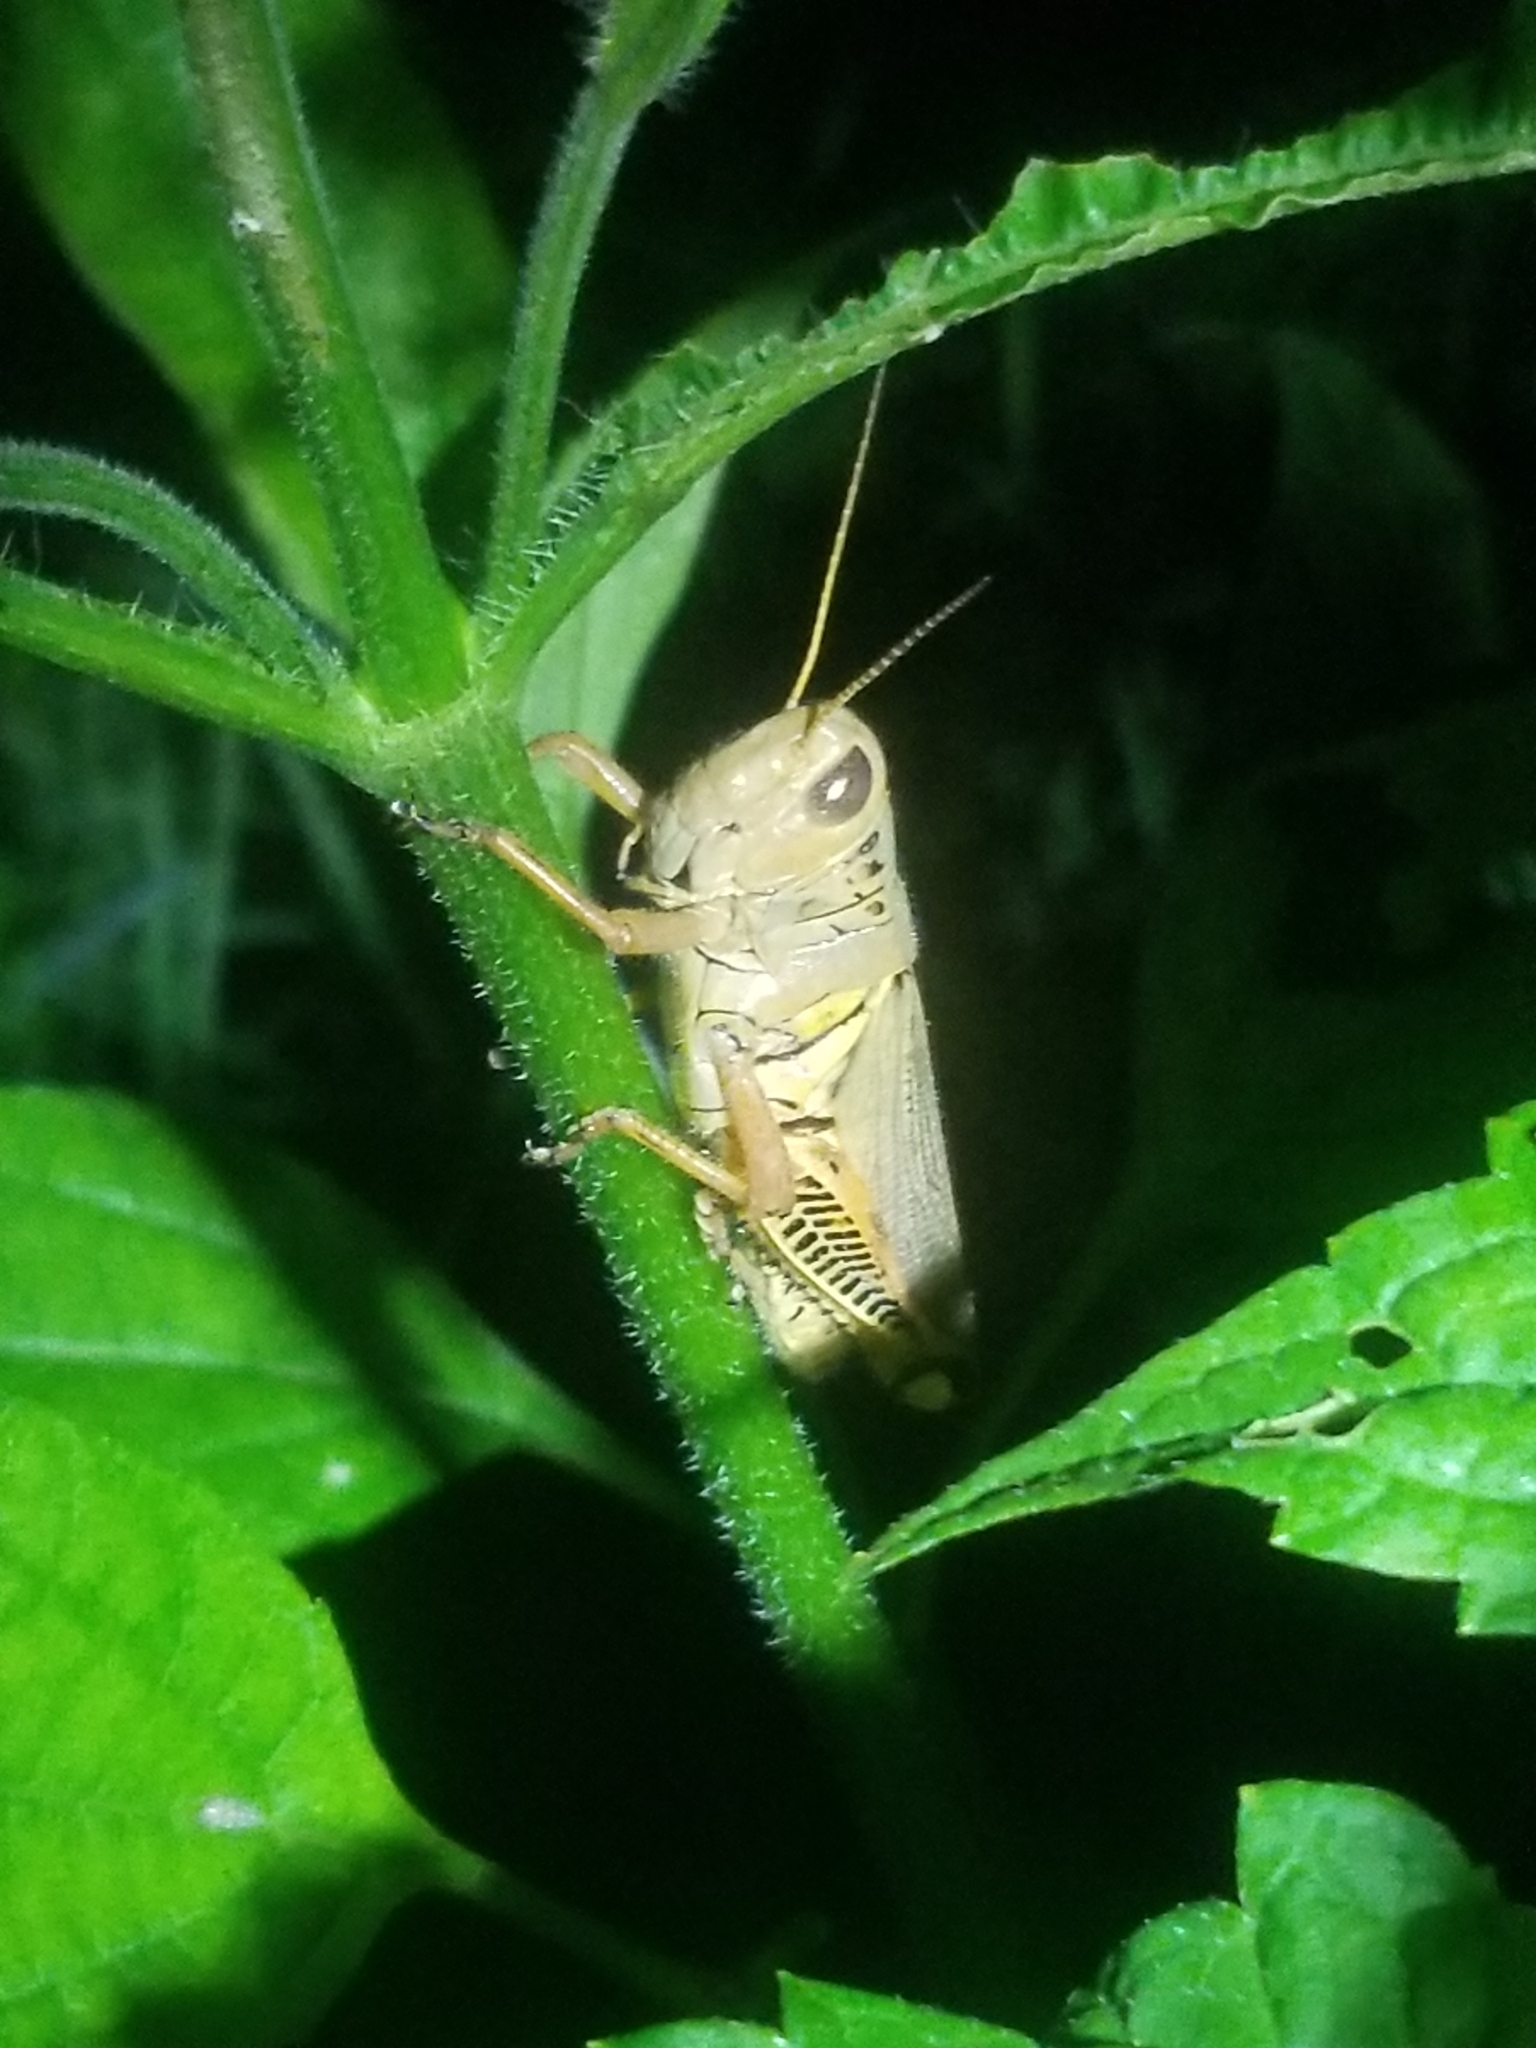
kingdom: Animalia
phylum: Arthropoda
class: Insecta
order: Orthoptera
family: Acrididae
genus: Melanoplus
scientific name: Melanoplus differentialis
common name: Differential grasshopper
